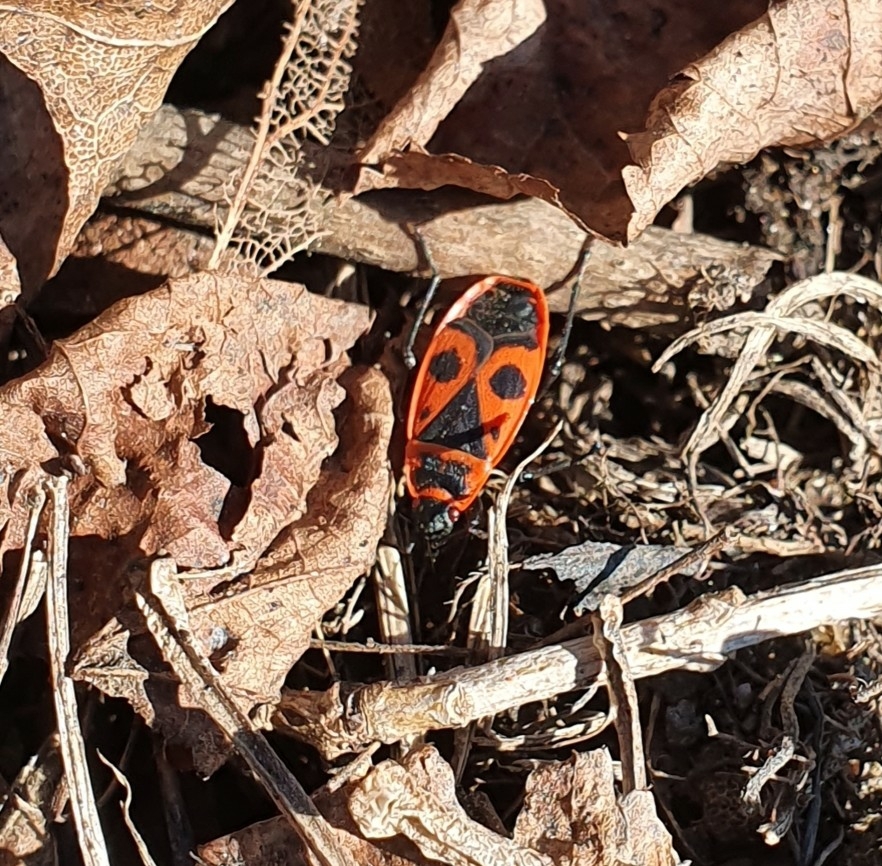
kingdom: Animalia
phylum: Arthropoda
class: Insecta
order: Hemiptera
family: Pyrrhocoridae
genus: Pyrrhocoris
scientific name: Pyrrhocoris apterus
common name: Firebug
